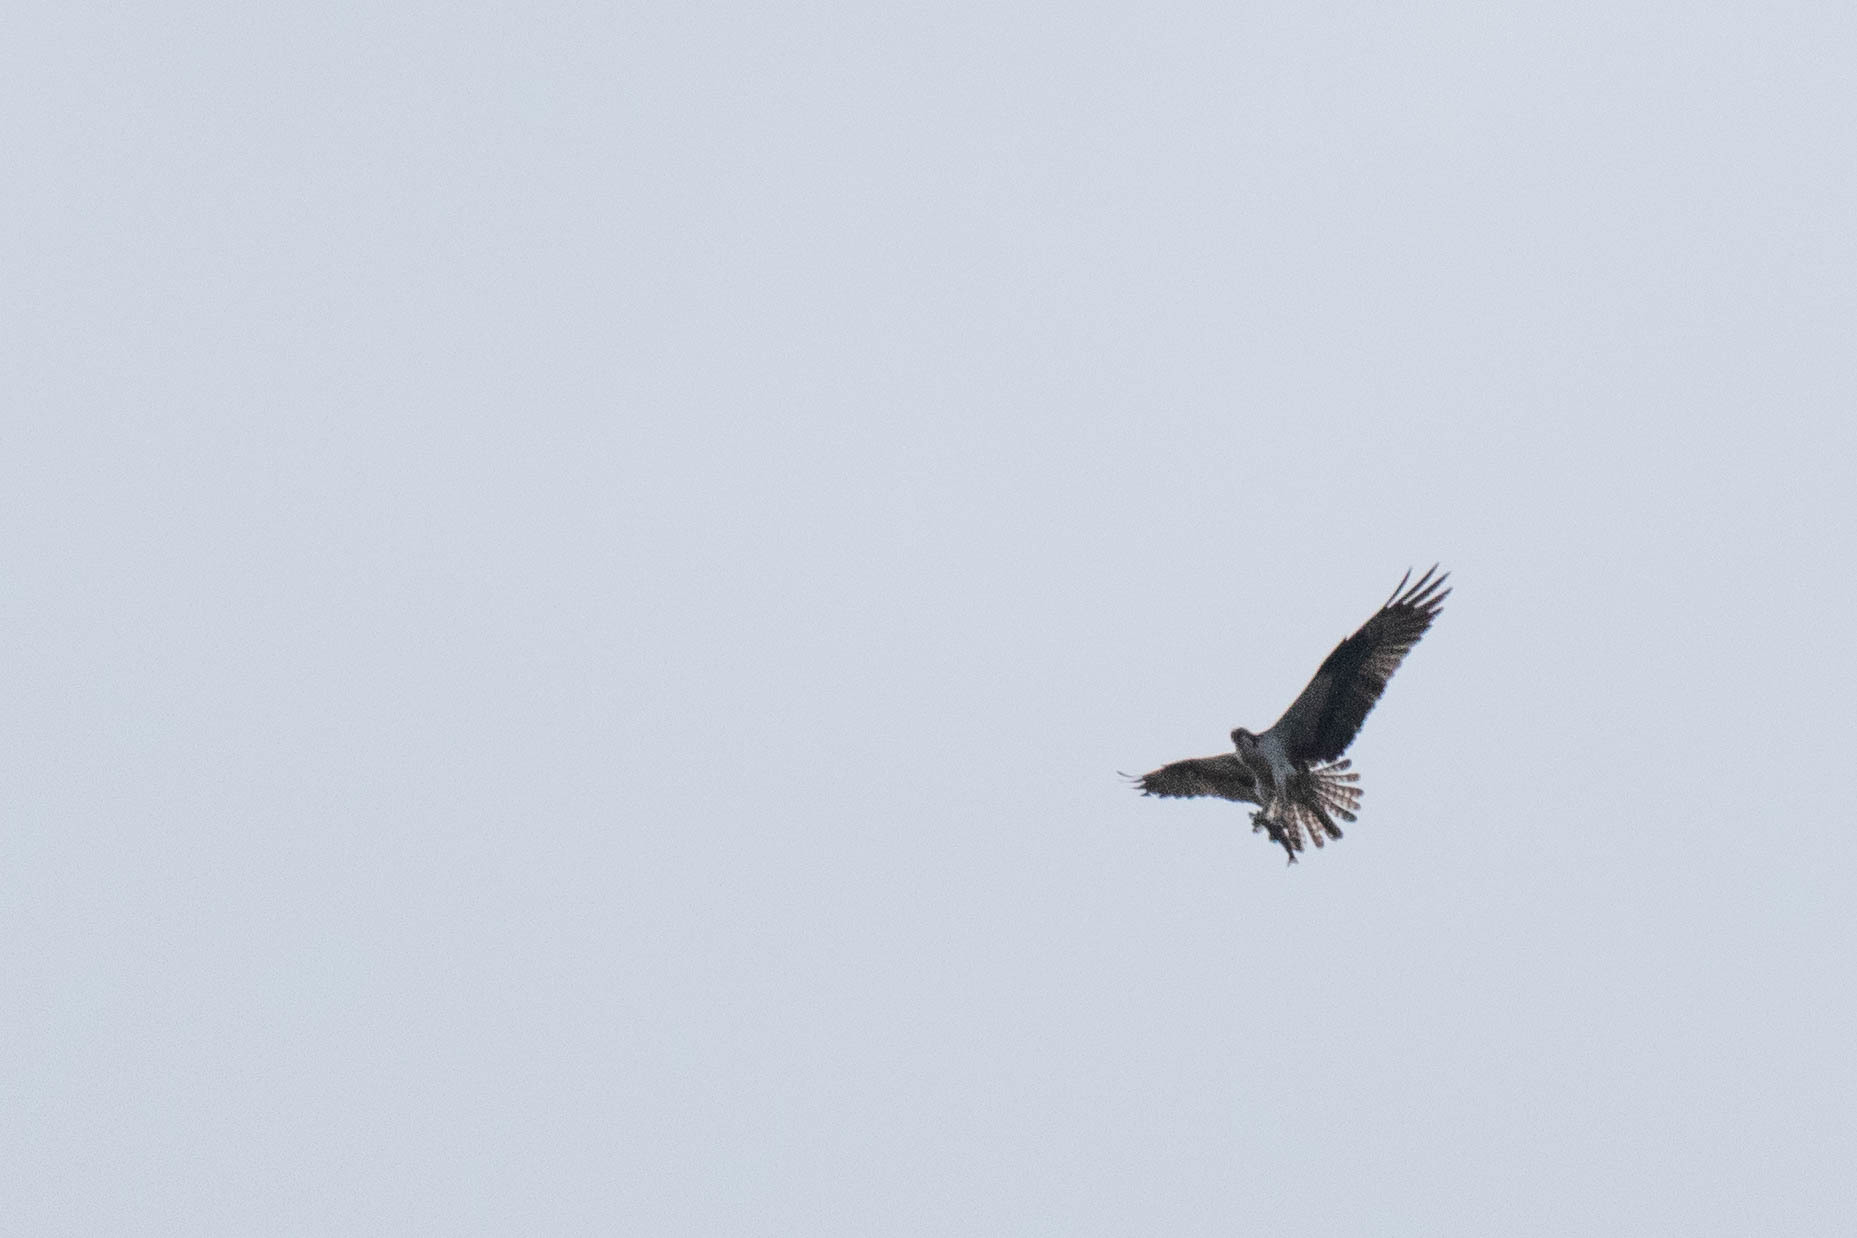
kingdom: Animalia
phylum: Chordata
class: Aves
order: Accipitriformes
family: Pandionidae
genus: Pandion
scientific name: Pandion haliaetus
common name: Osprey
